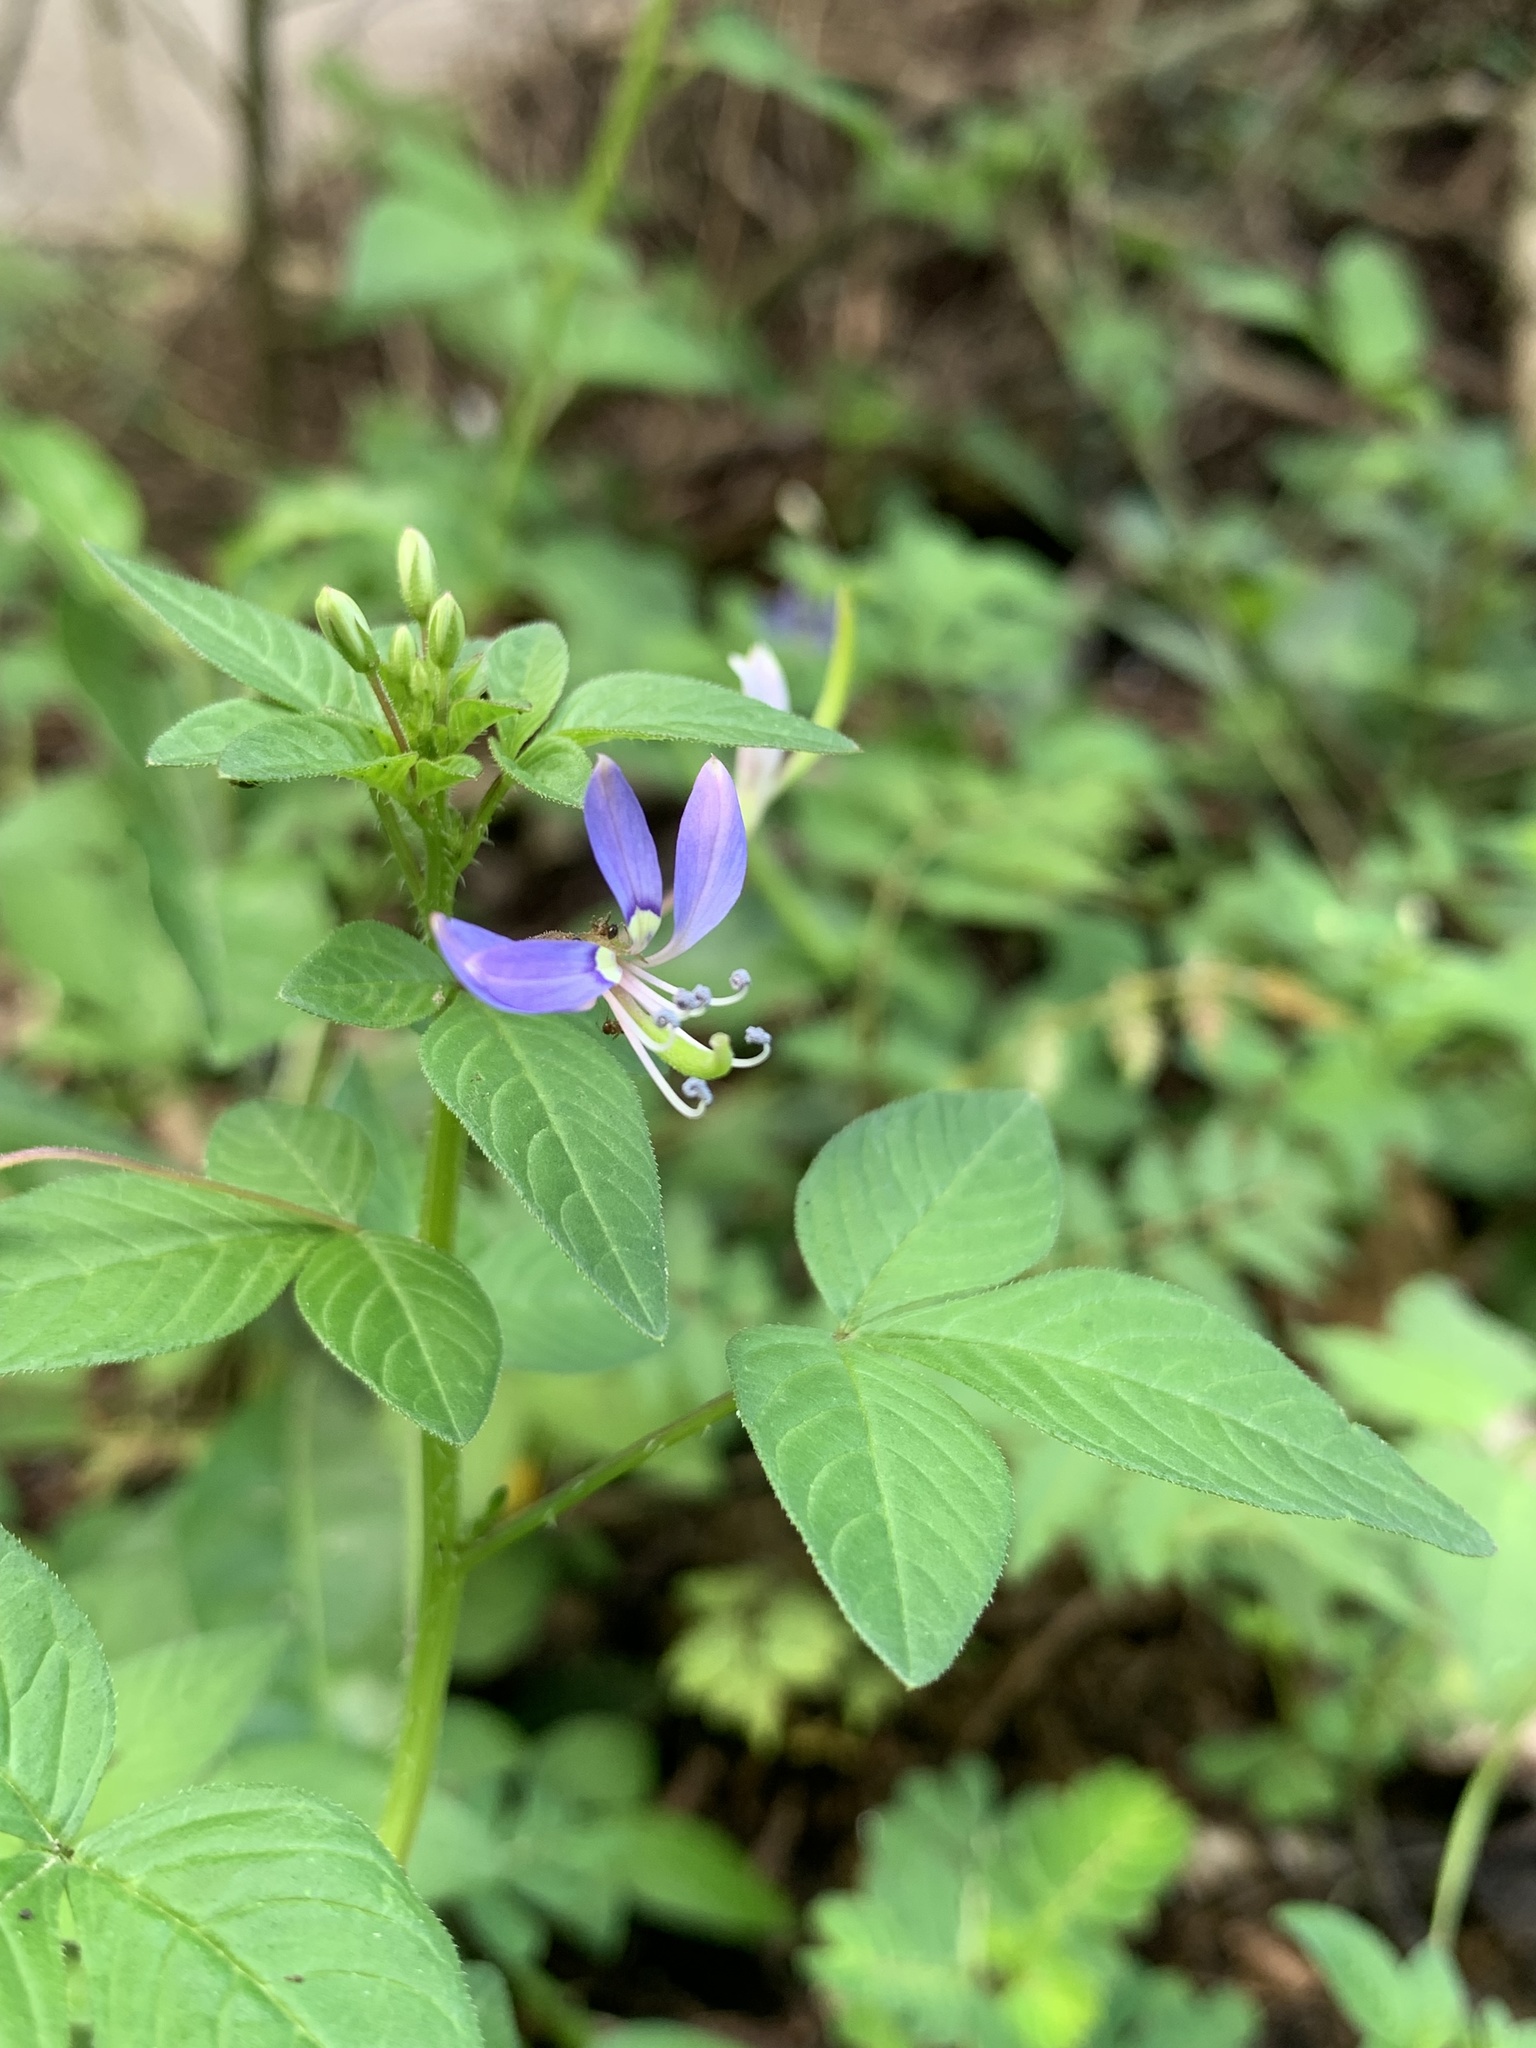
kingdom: Plantae
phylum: Tracheophyta
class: Magnoliopsida
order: Brassicales
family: Cleomaceae
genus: Sieruela
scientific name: Sieruela rutidosperma
